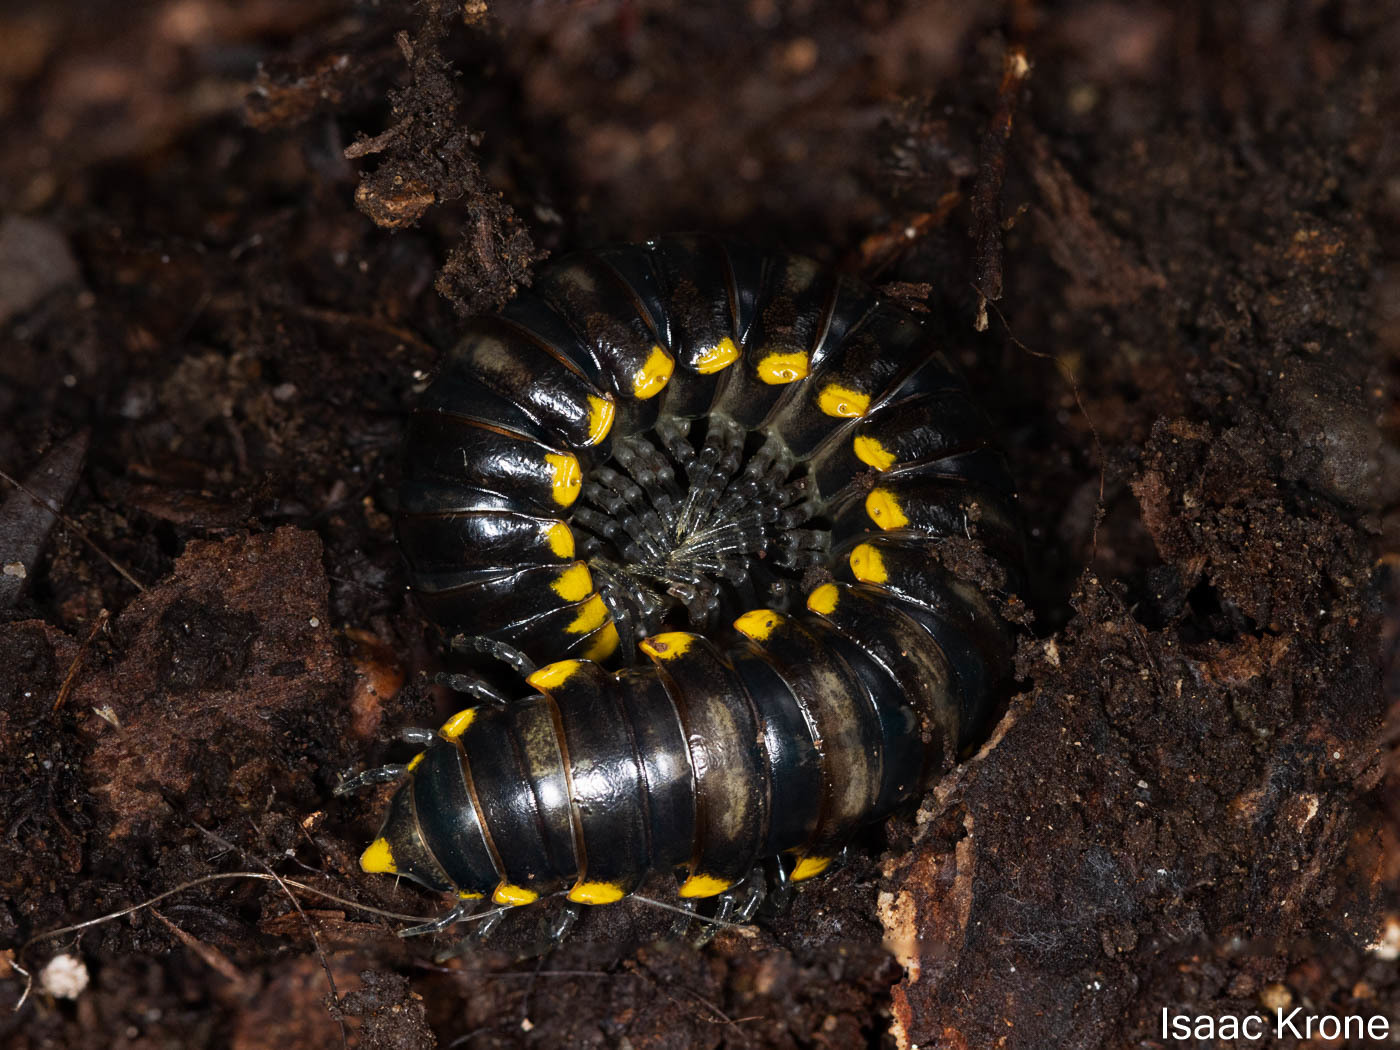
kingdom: Animalia
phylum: Arthropoda
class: Diplopoda
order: Polydesmida
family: Xystodesmidae
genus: Harpaphe
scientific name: Harpaphe haydeniana
